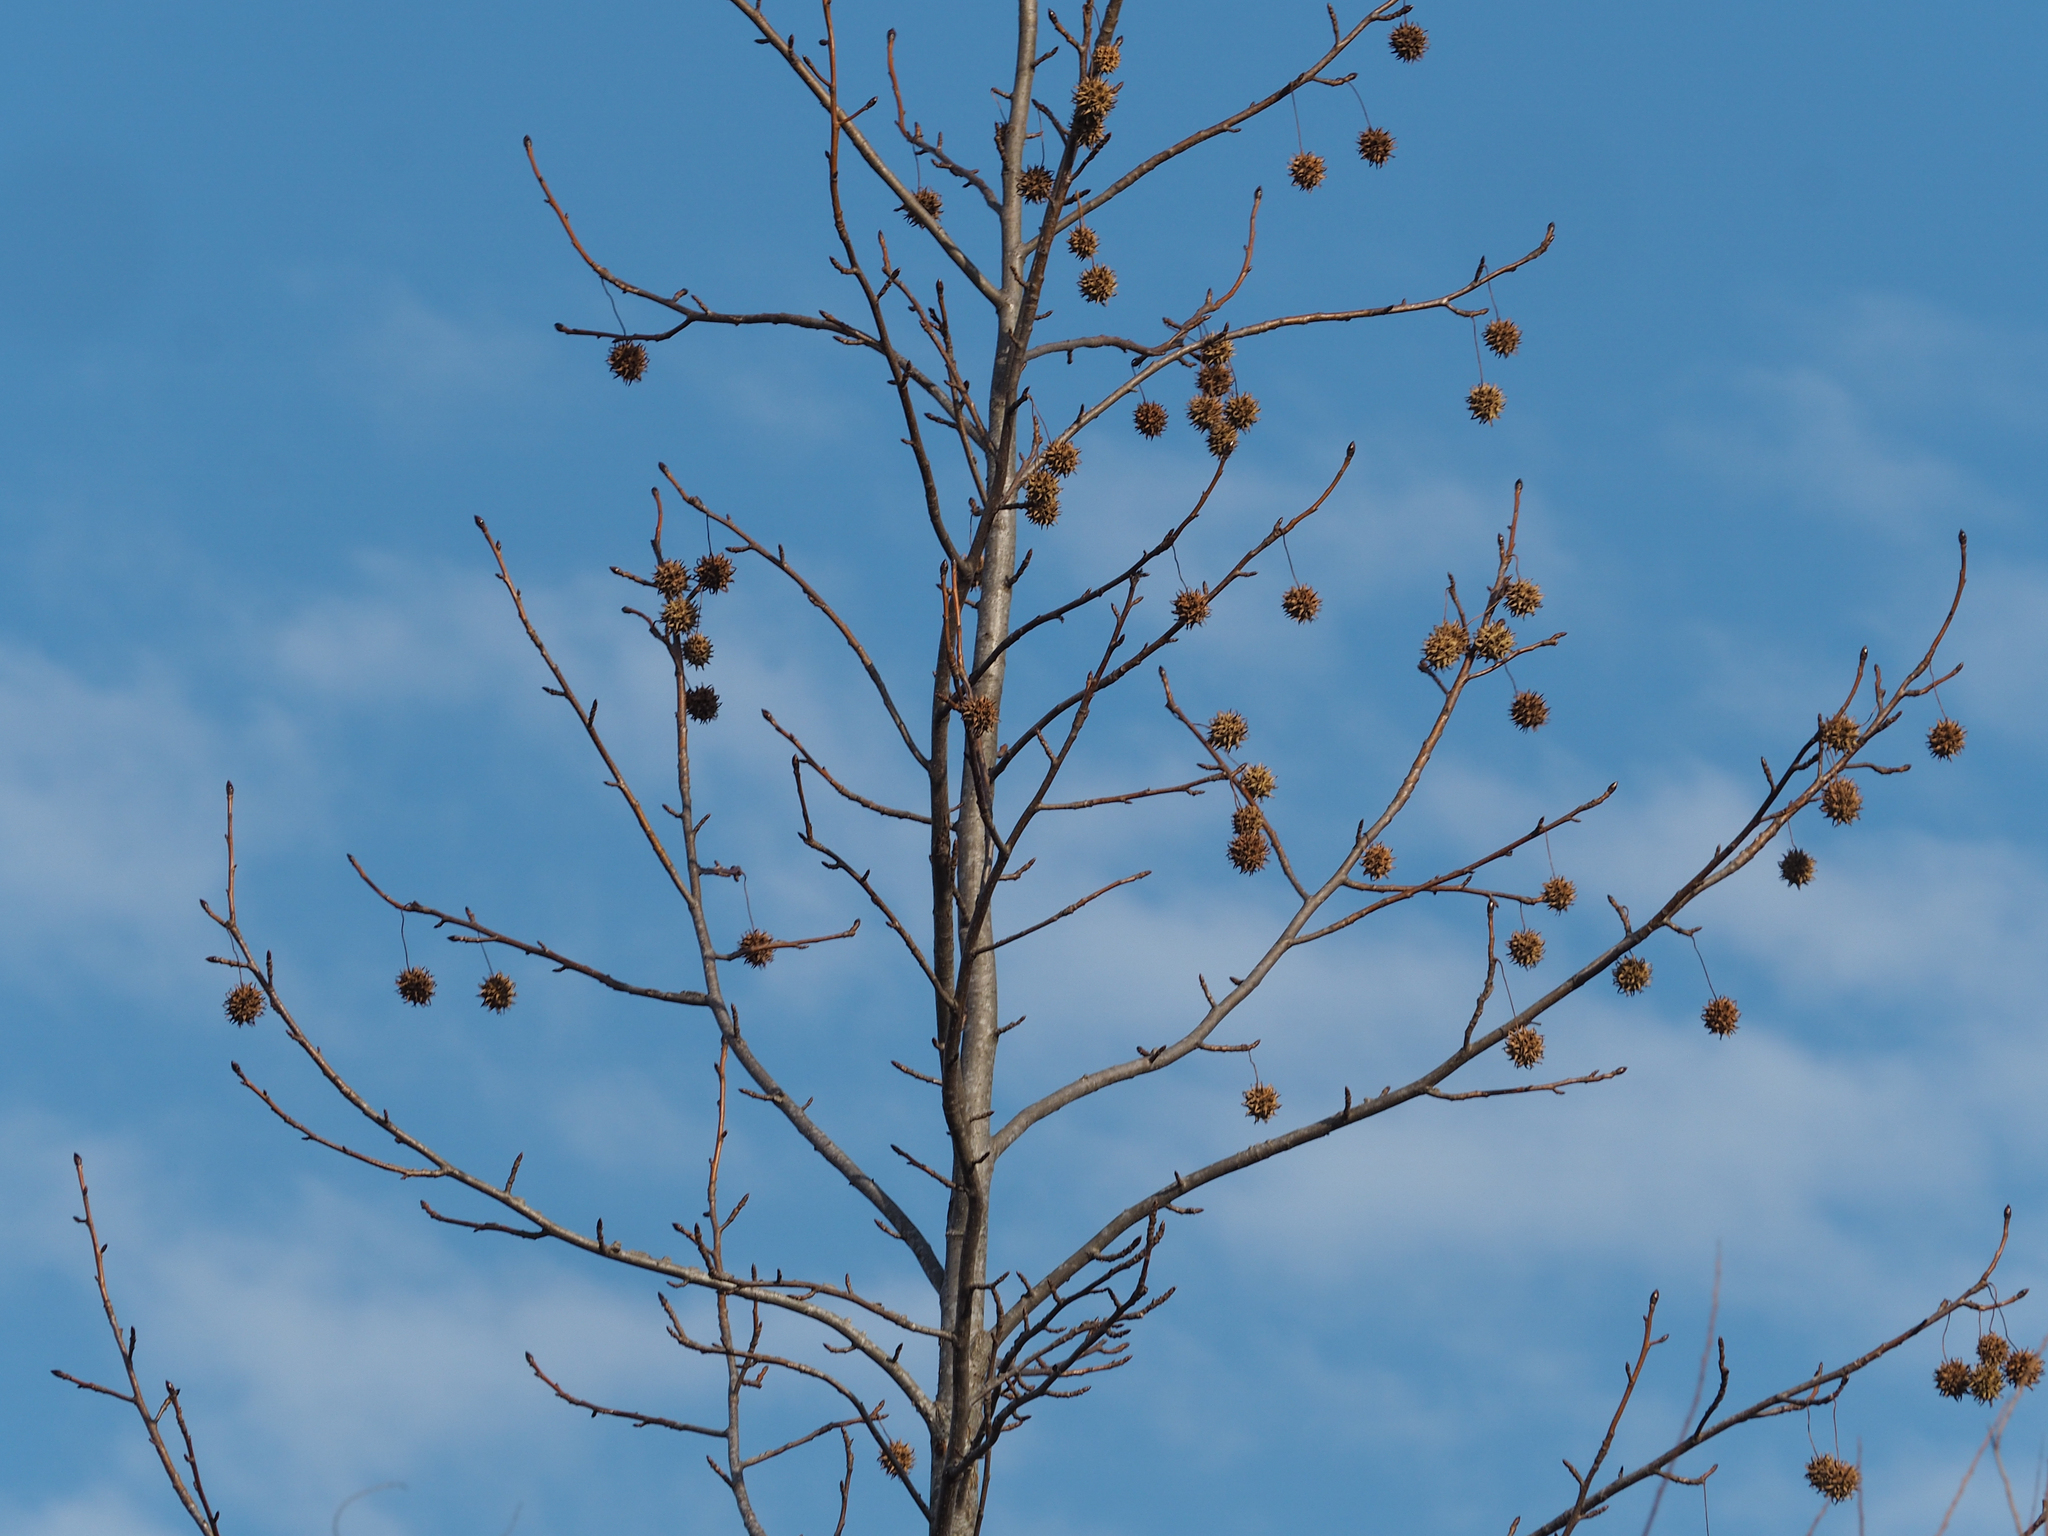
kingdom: Plantae
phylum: Tracheophyta
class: Magnoliopsida
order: Saxifragales
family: Altingiaceae
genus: Liquidambar
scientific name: Liquidambar styraciflua
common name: Sweet gum
